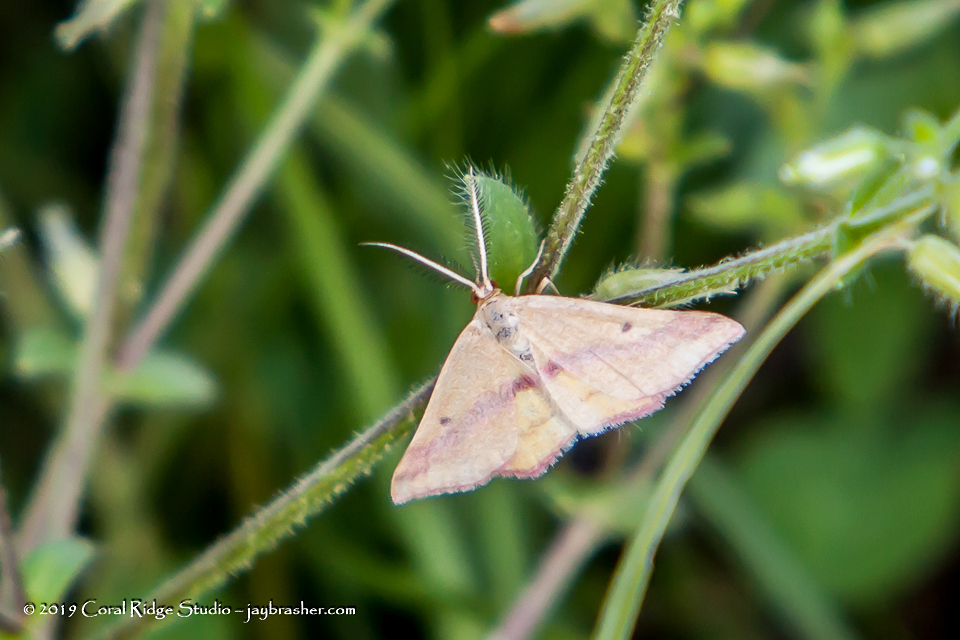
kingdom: Animalia
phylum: Arthropoda
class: Insecta
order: Lepidoptera
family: Geometridae
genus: Haematopis
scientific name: Haematopis grataria
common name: Chickweed geometer
